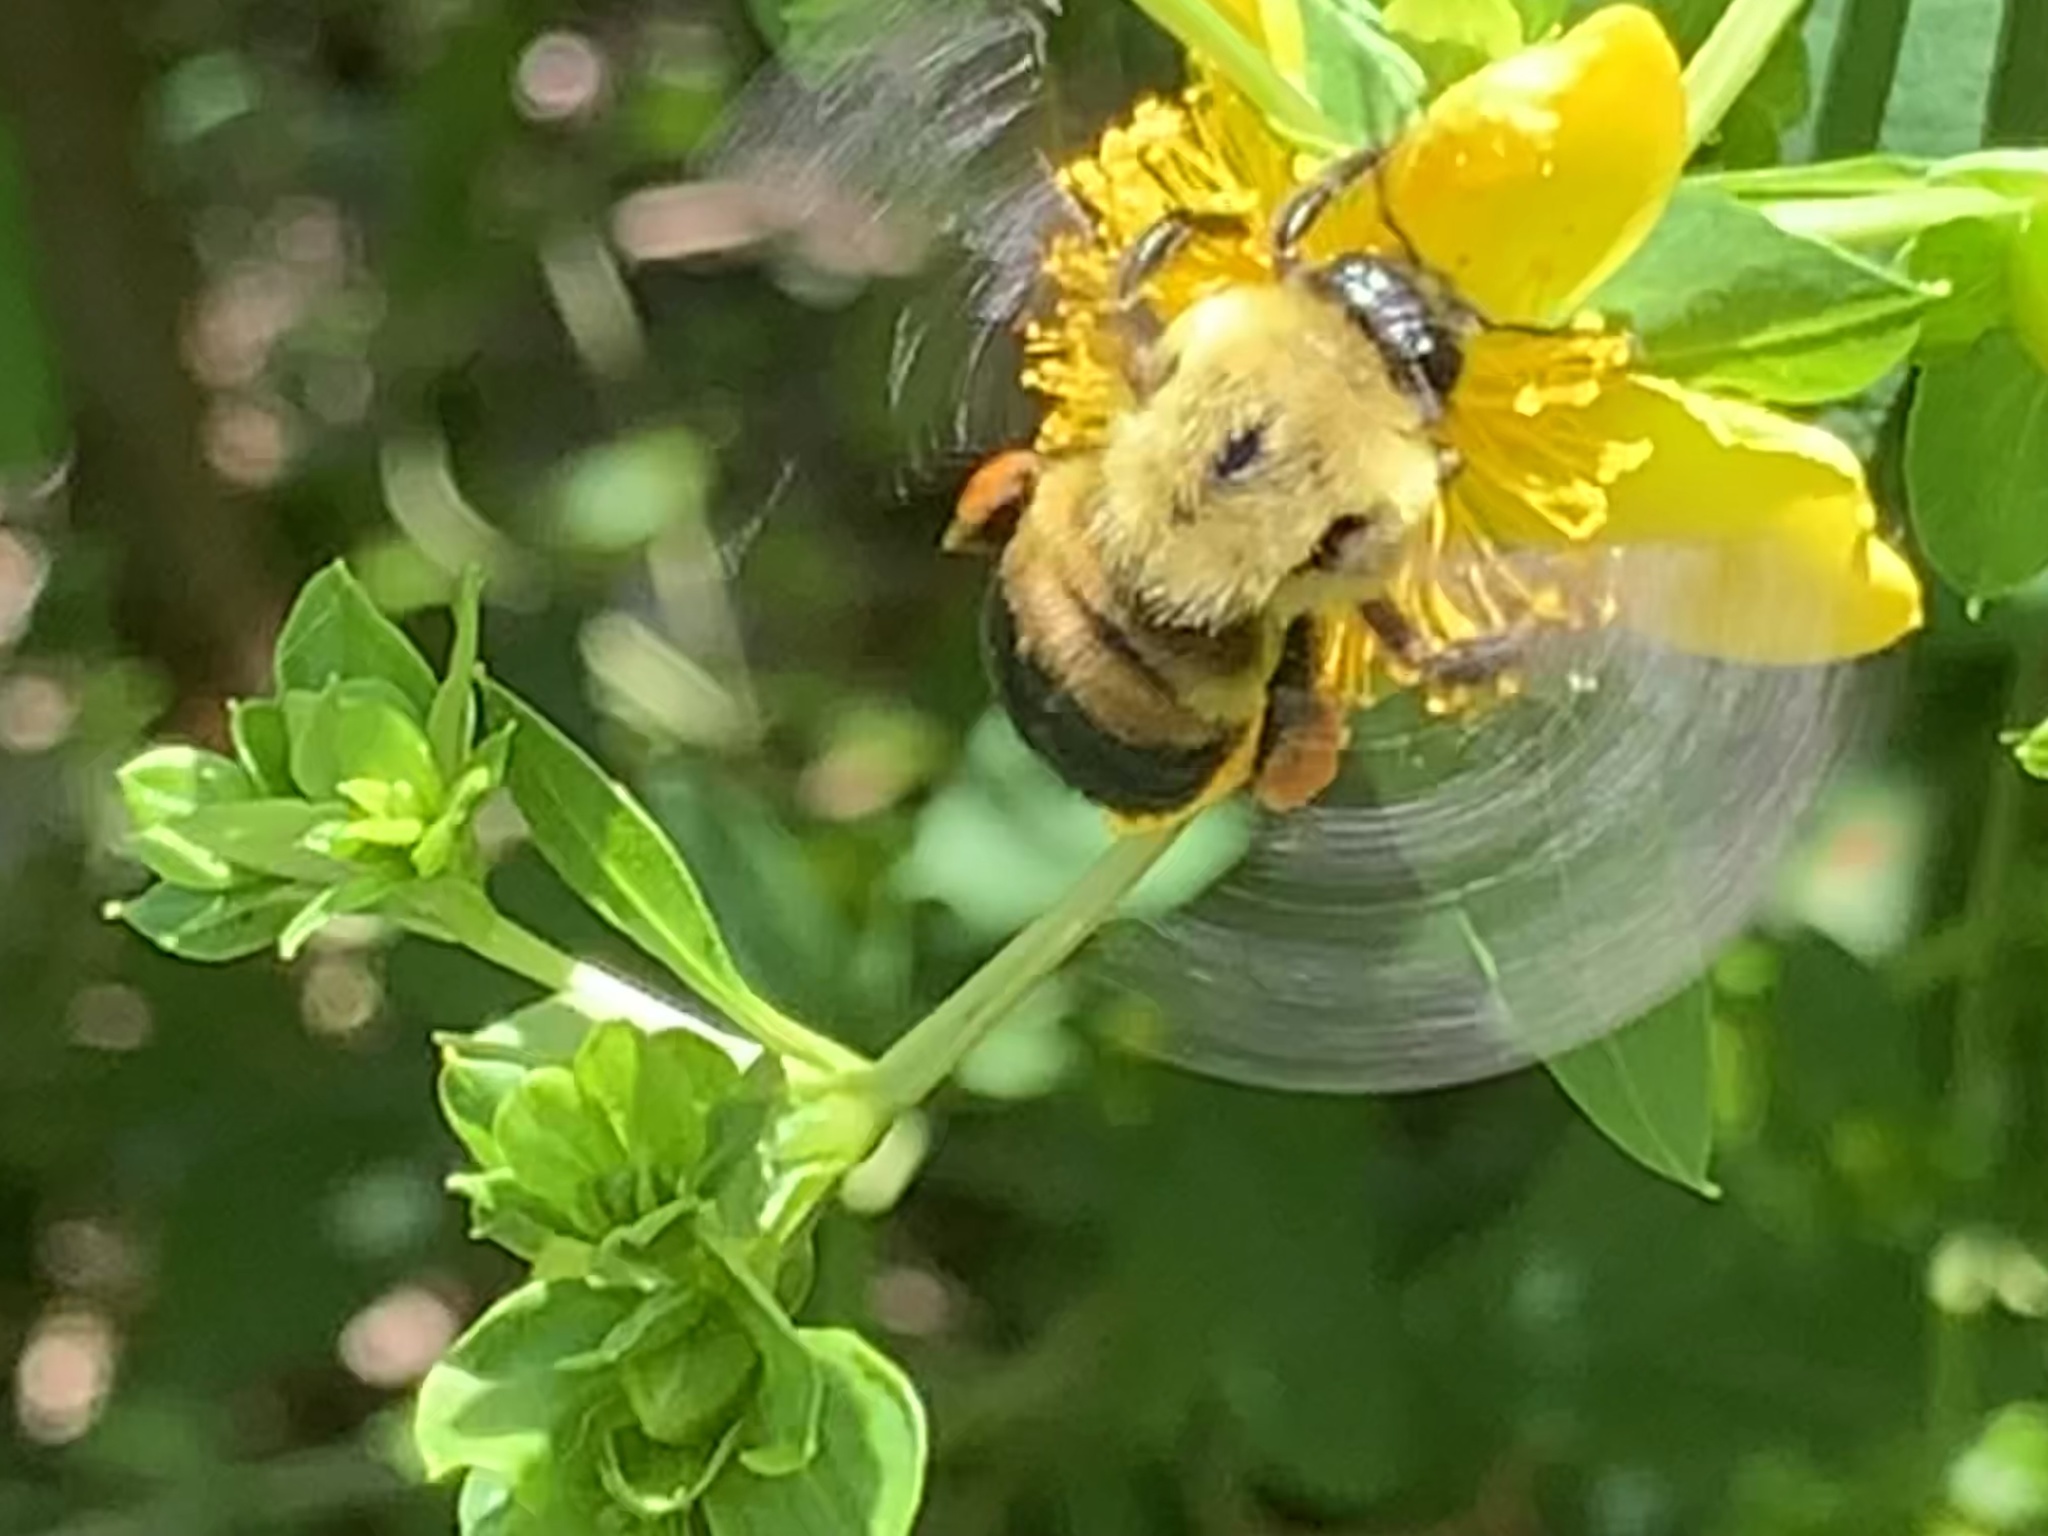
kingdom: Animalia
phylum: Arthropoda
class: Insecta
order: Hymenoptera
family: Apidae
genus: Bombus
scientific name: Bombus griseocollis
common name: Brown-belted bumble bee
